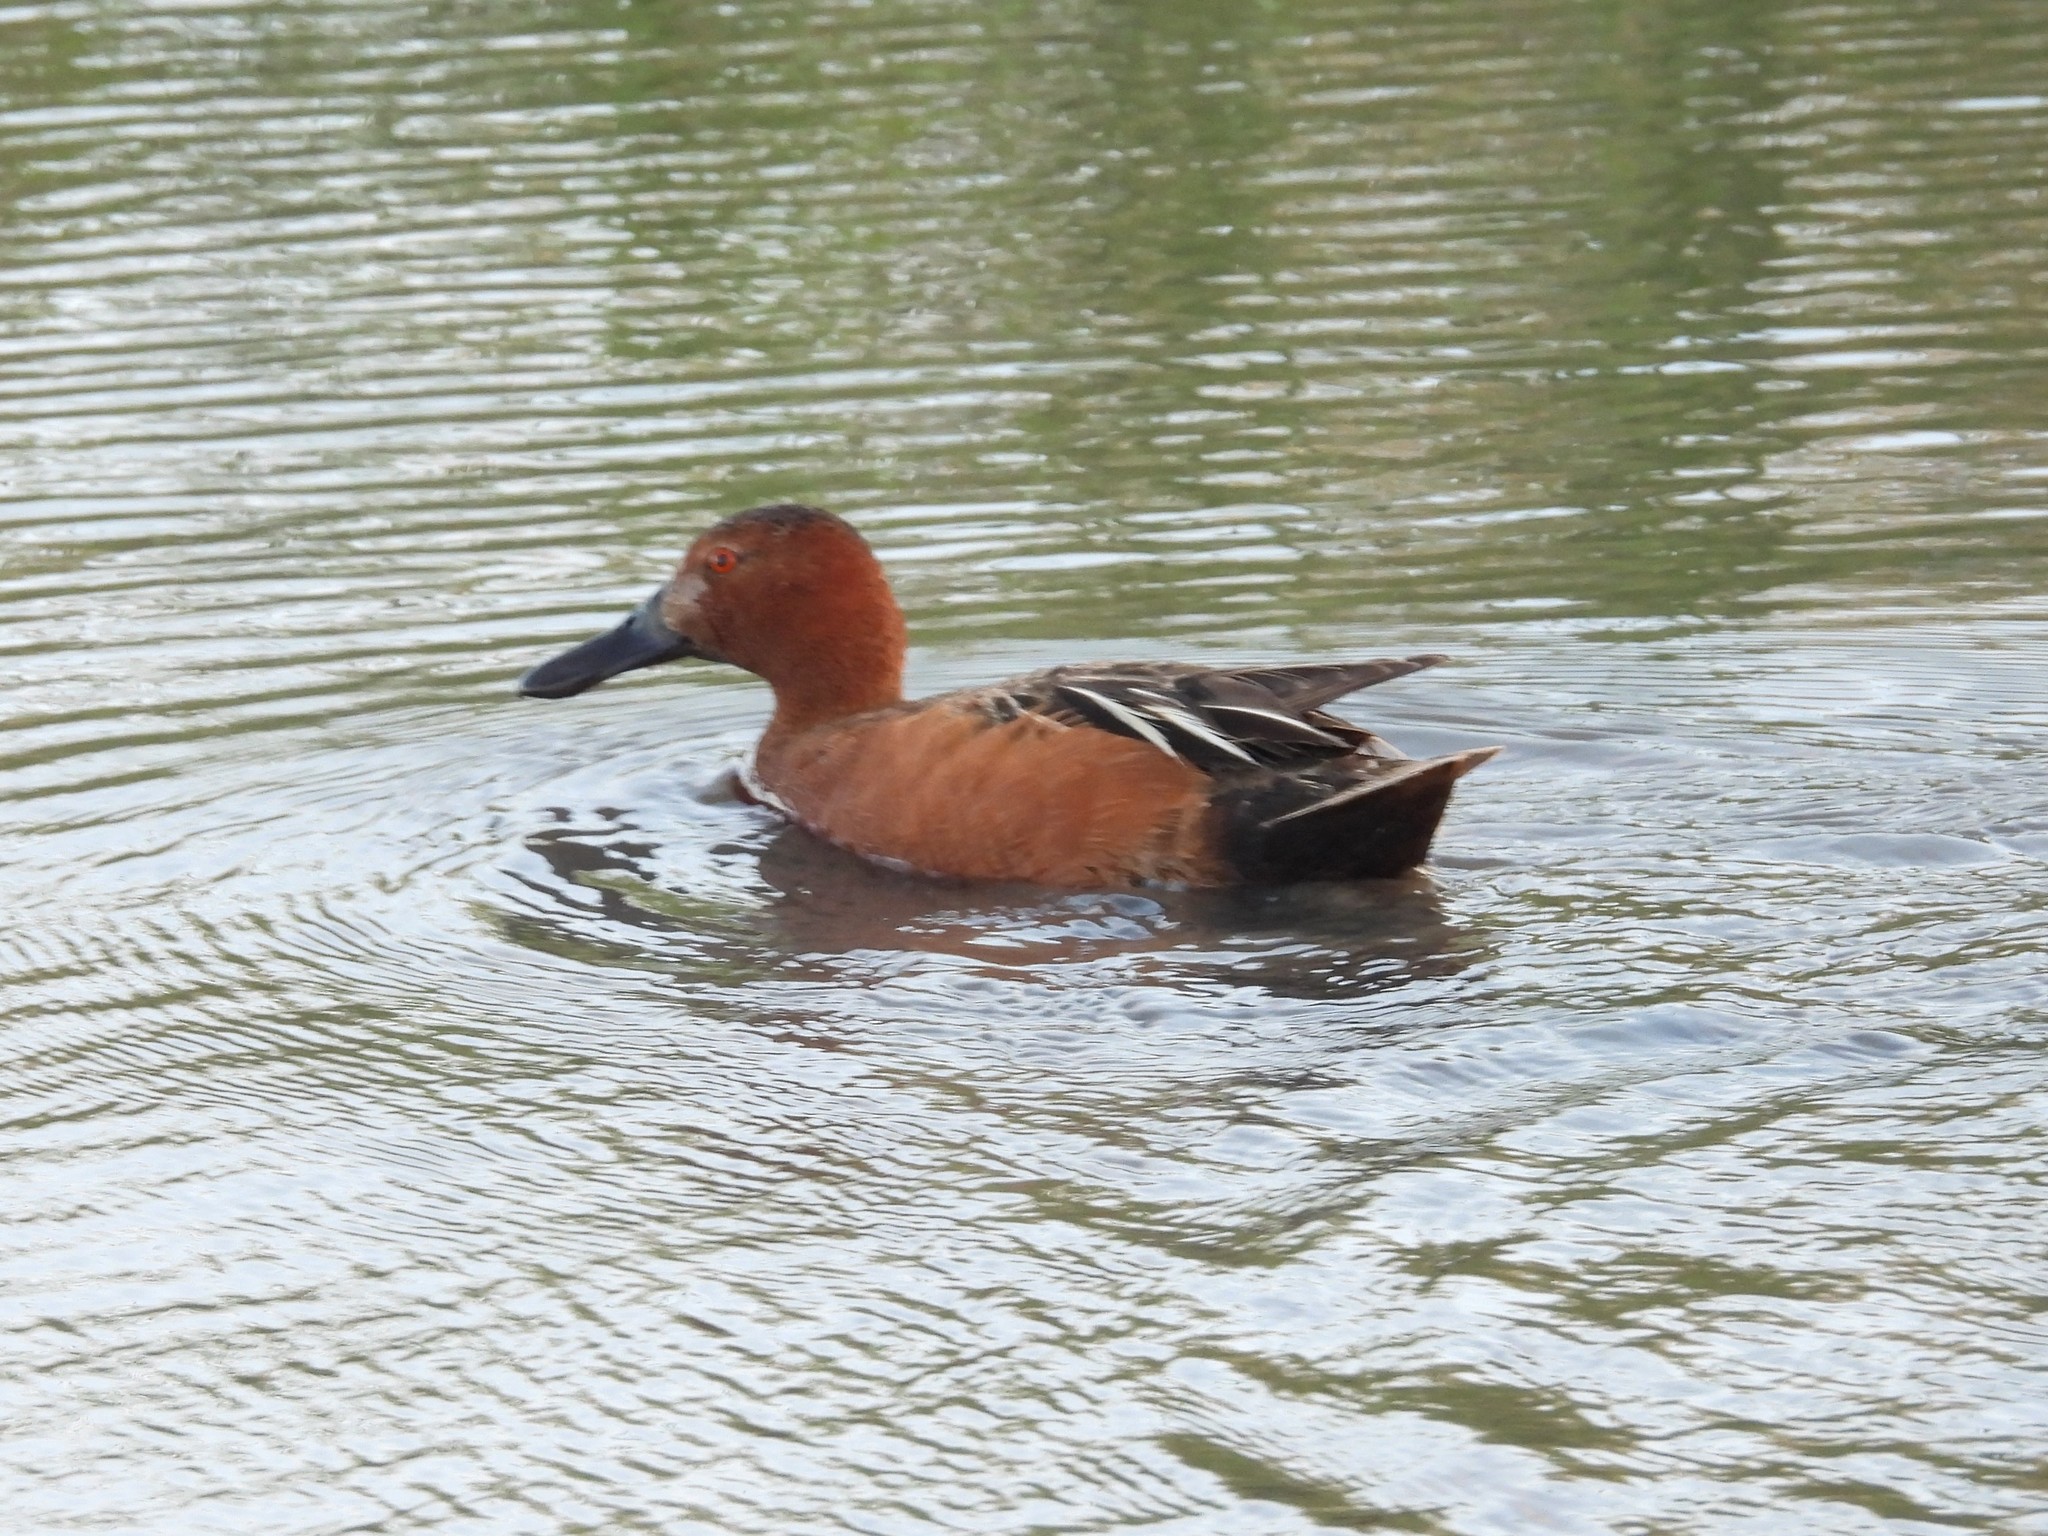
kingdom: Animalia
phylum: Chordata
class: Aves
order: Anseriformes
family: Anatidae
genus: Spatula
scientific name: Spatula cyanoptera
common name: Cinnamon teal
